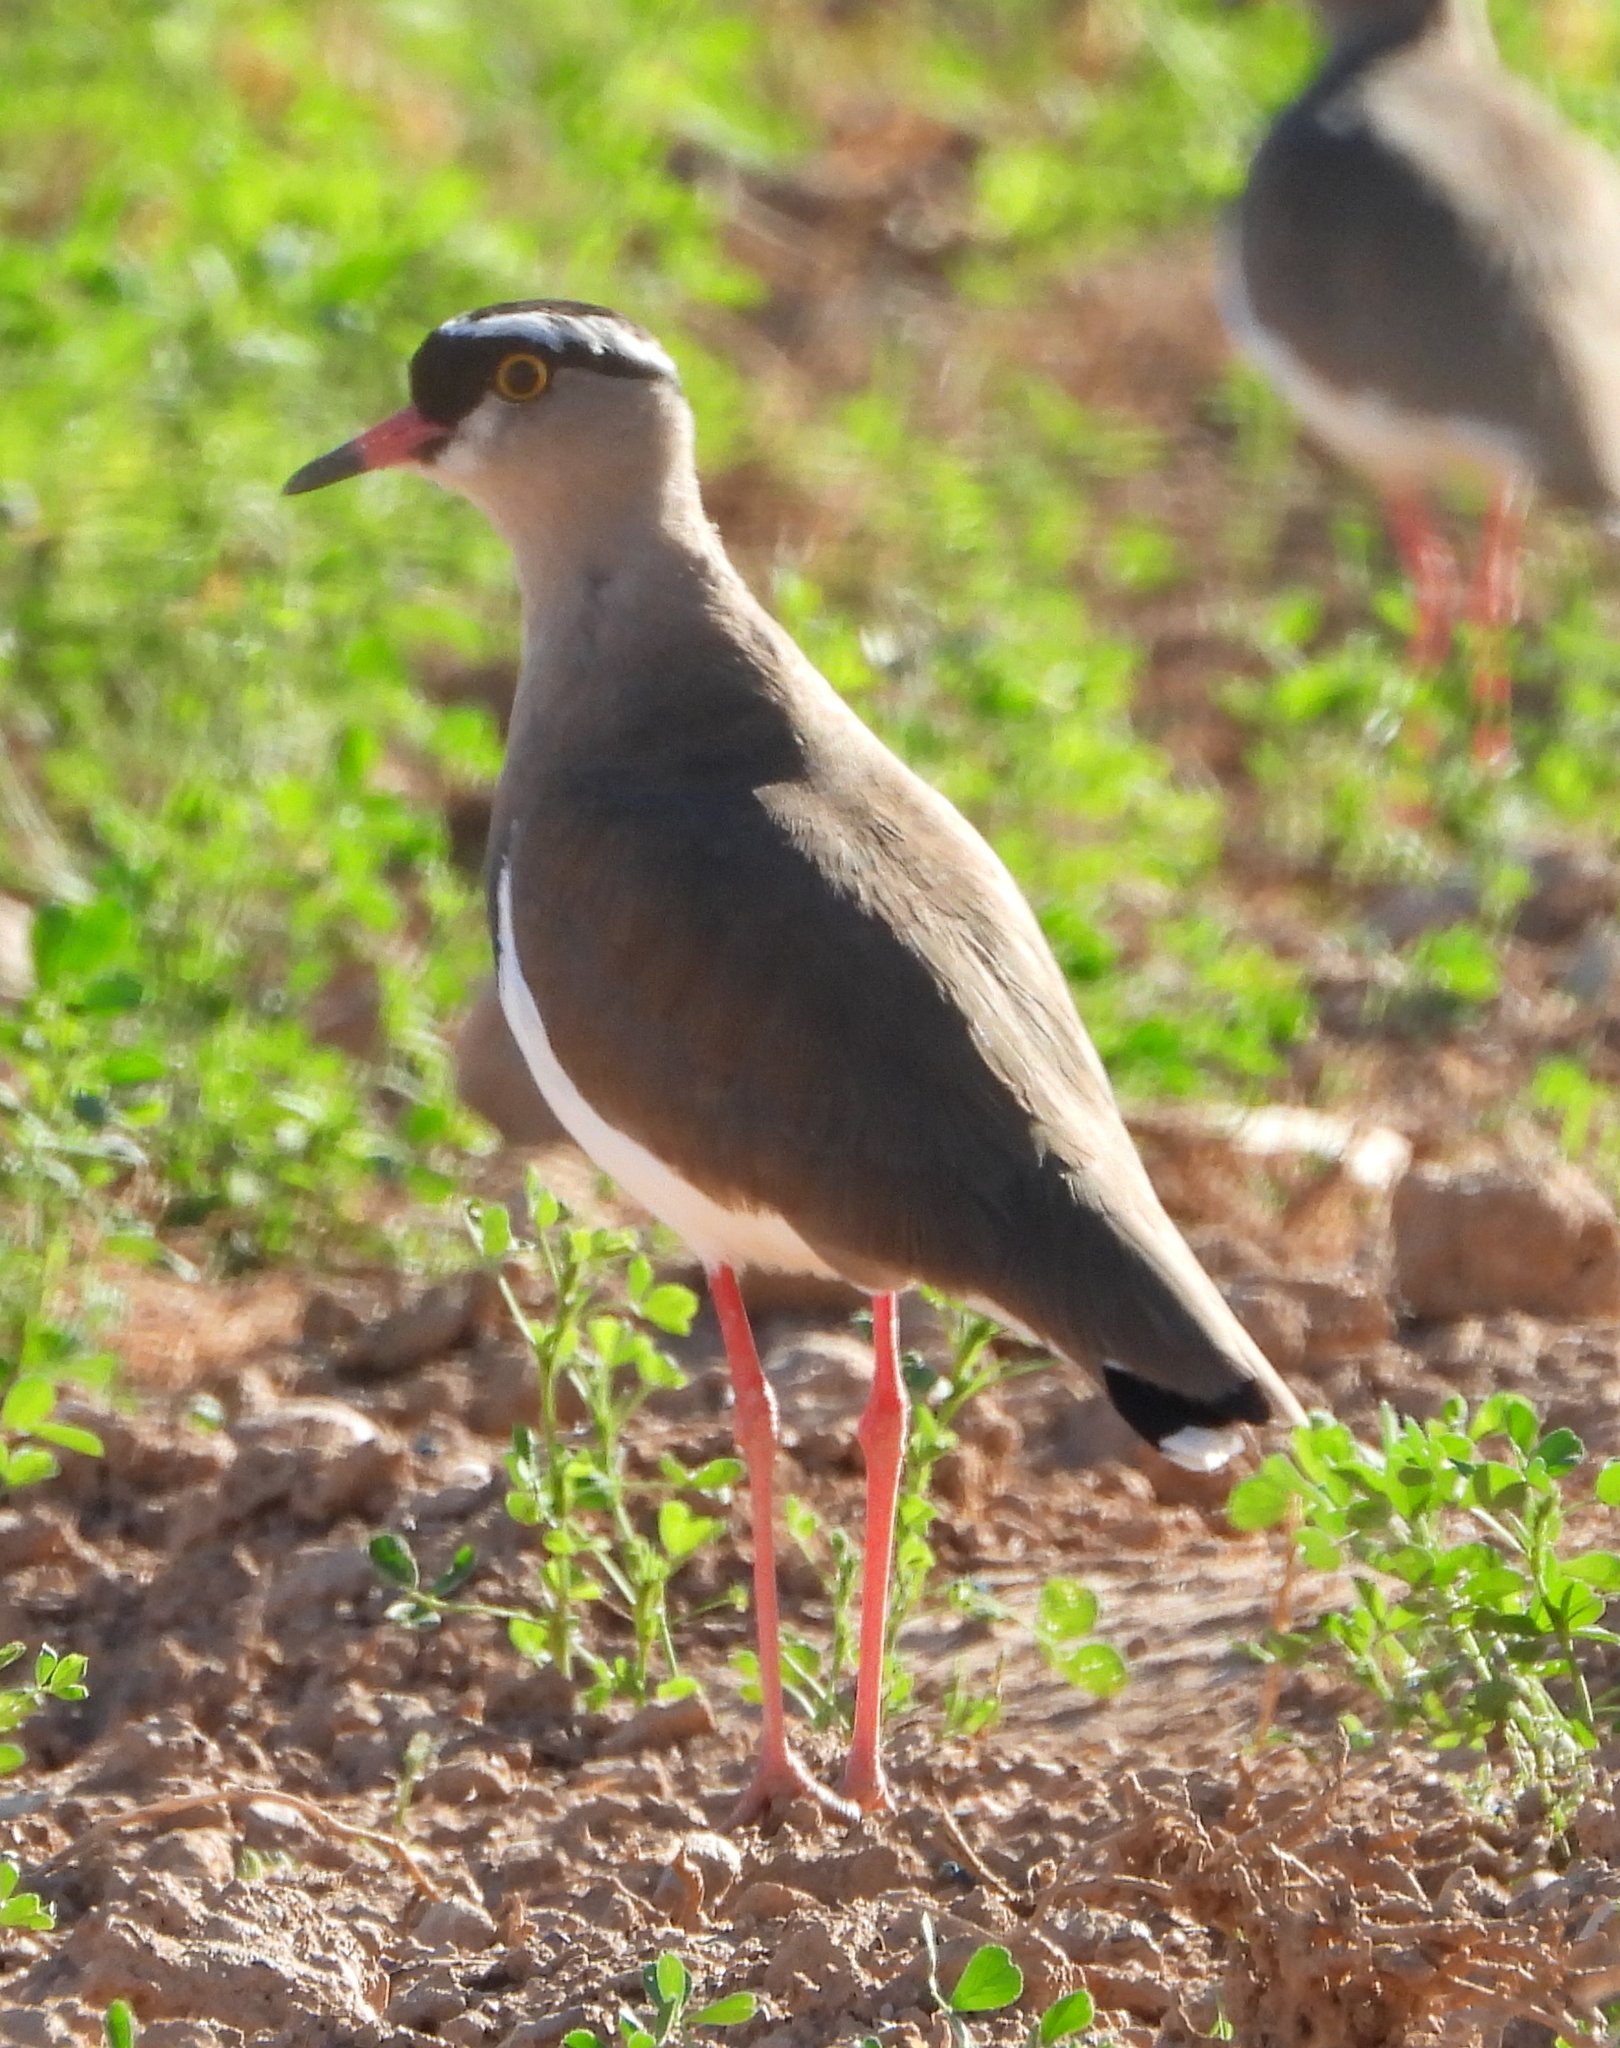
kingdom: Animalia
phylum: Chordata
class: Aves
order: Charadriiformes
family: Charadriidae
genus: Vanellus
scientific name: Vanellus coronatus
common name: Crowned lapwing
